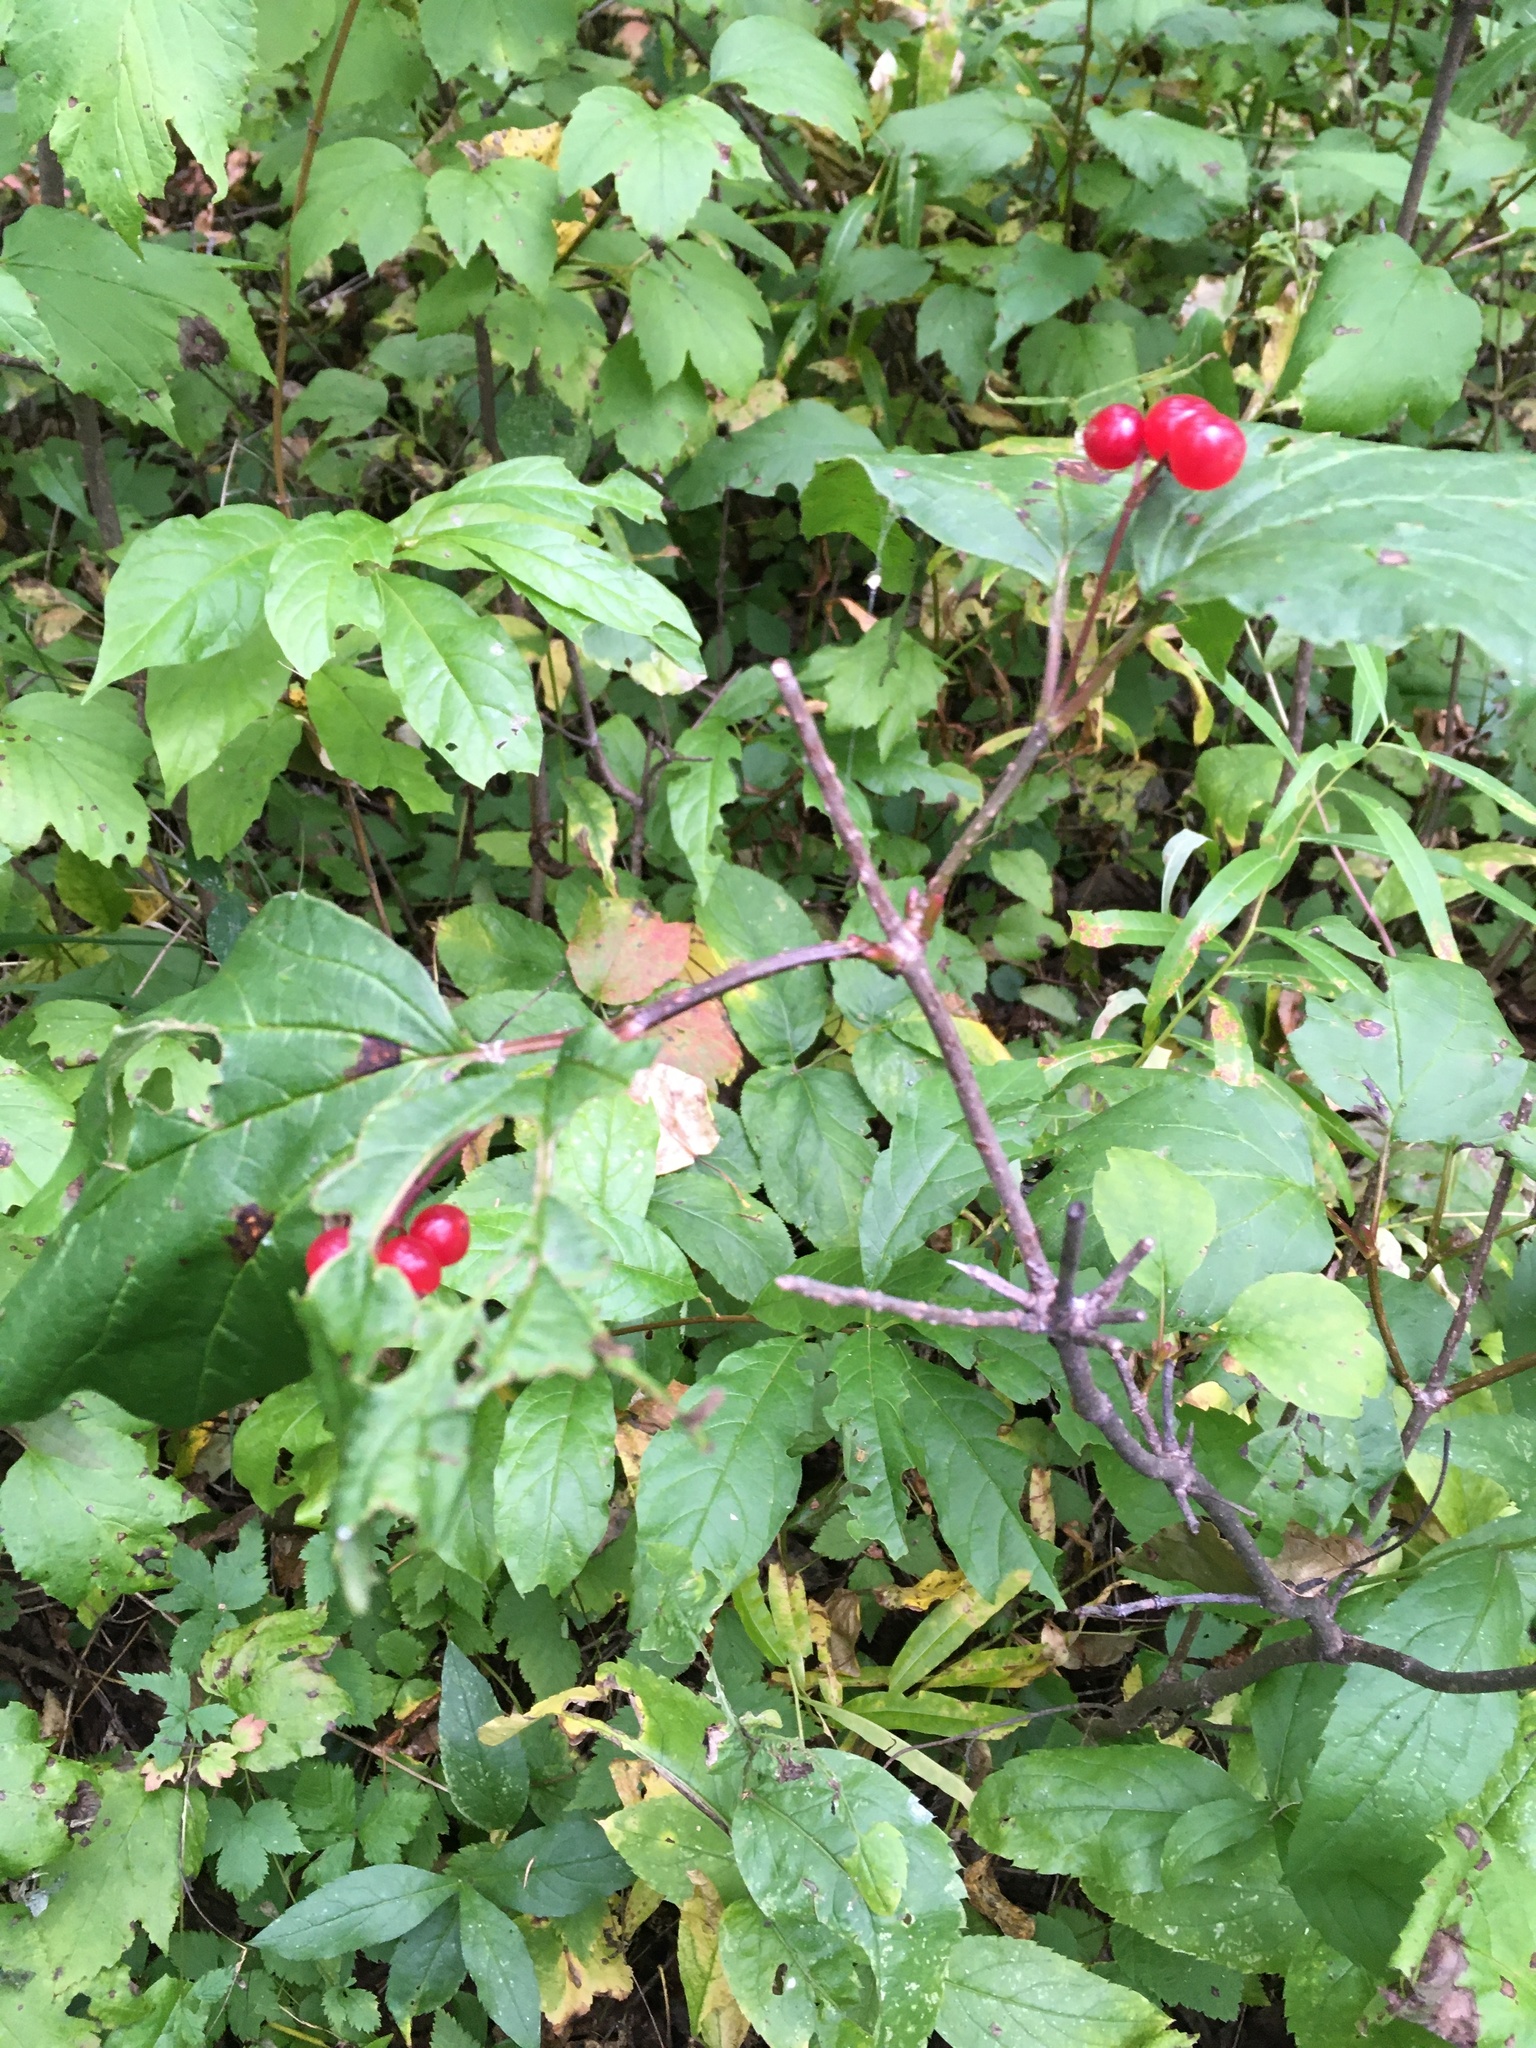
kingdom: Plantae
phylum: Tracheophyta
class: Magnoliopsida
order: Dipsacales
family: Viburnaceae
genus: Viburnum
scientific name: Viburnum edule
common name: Mooseberry
